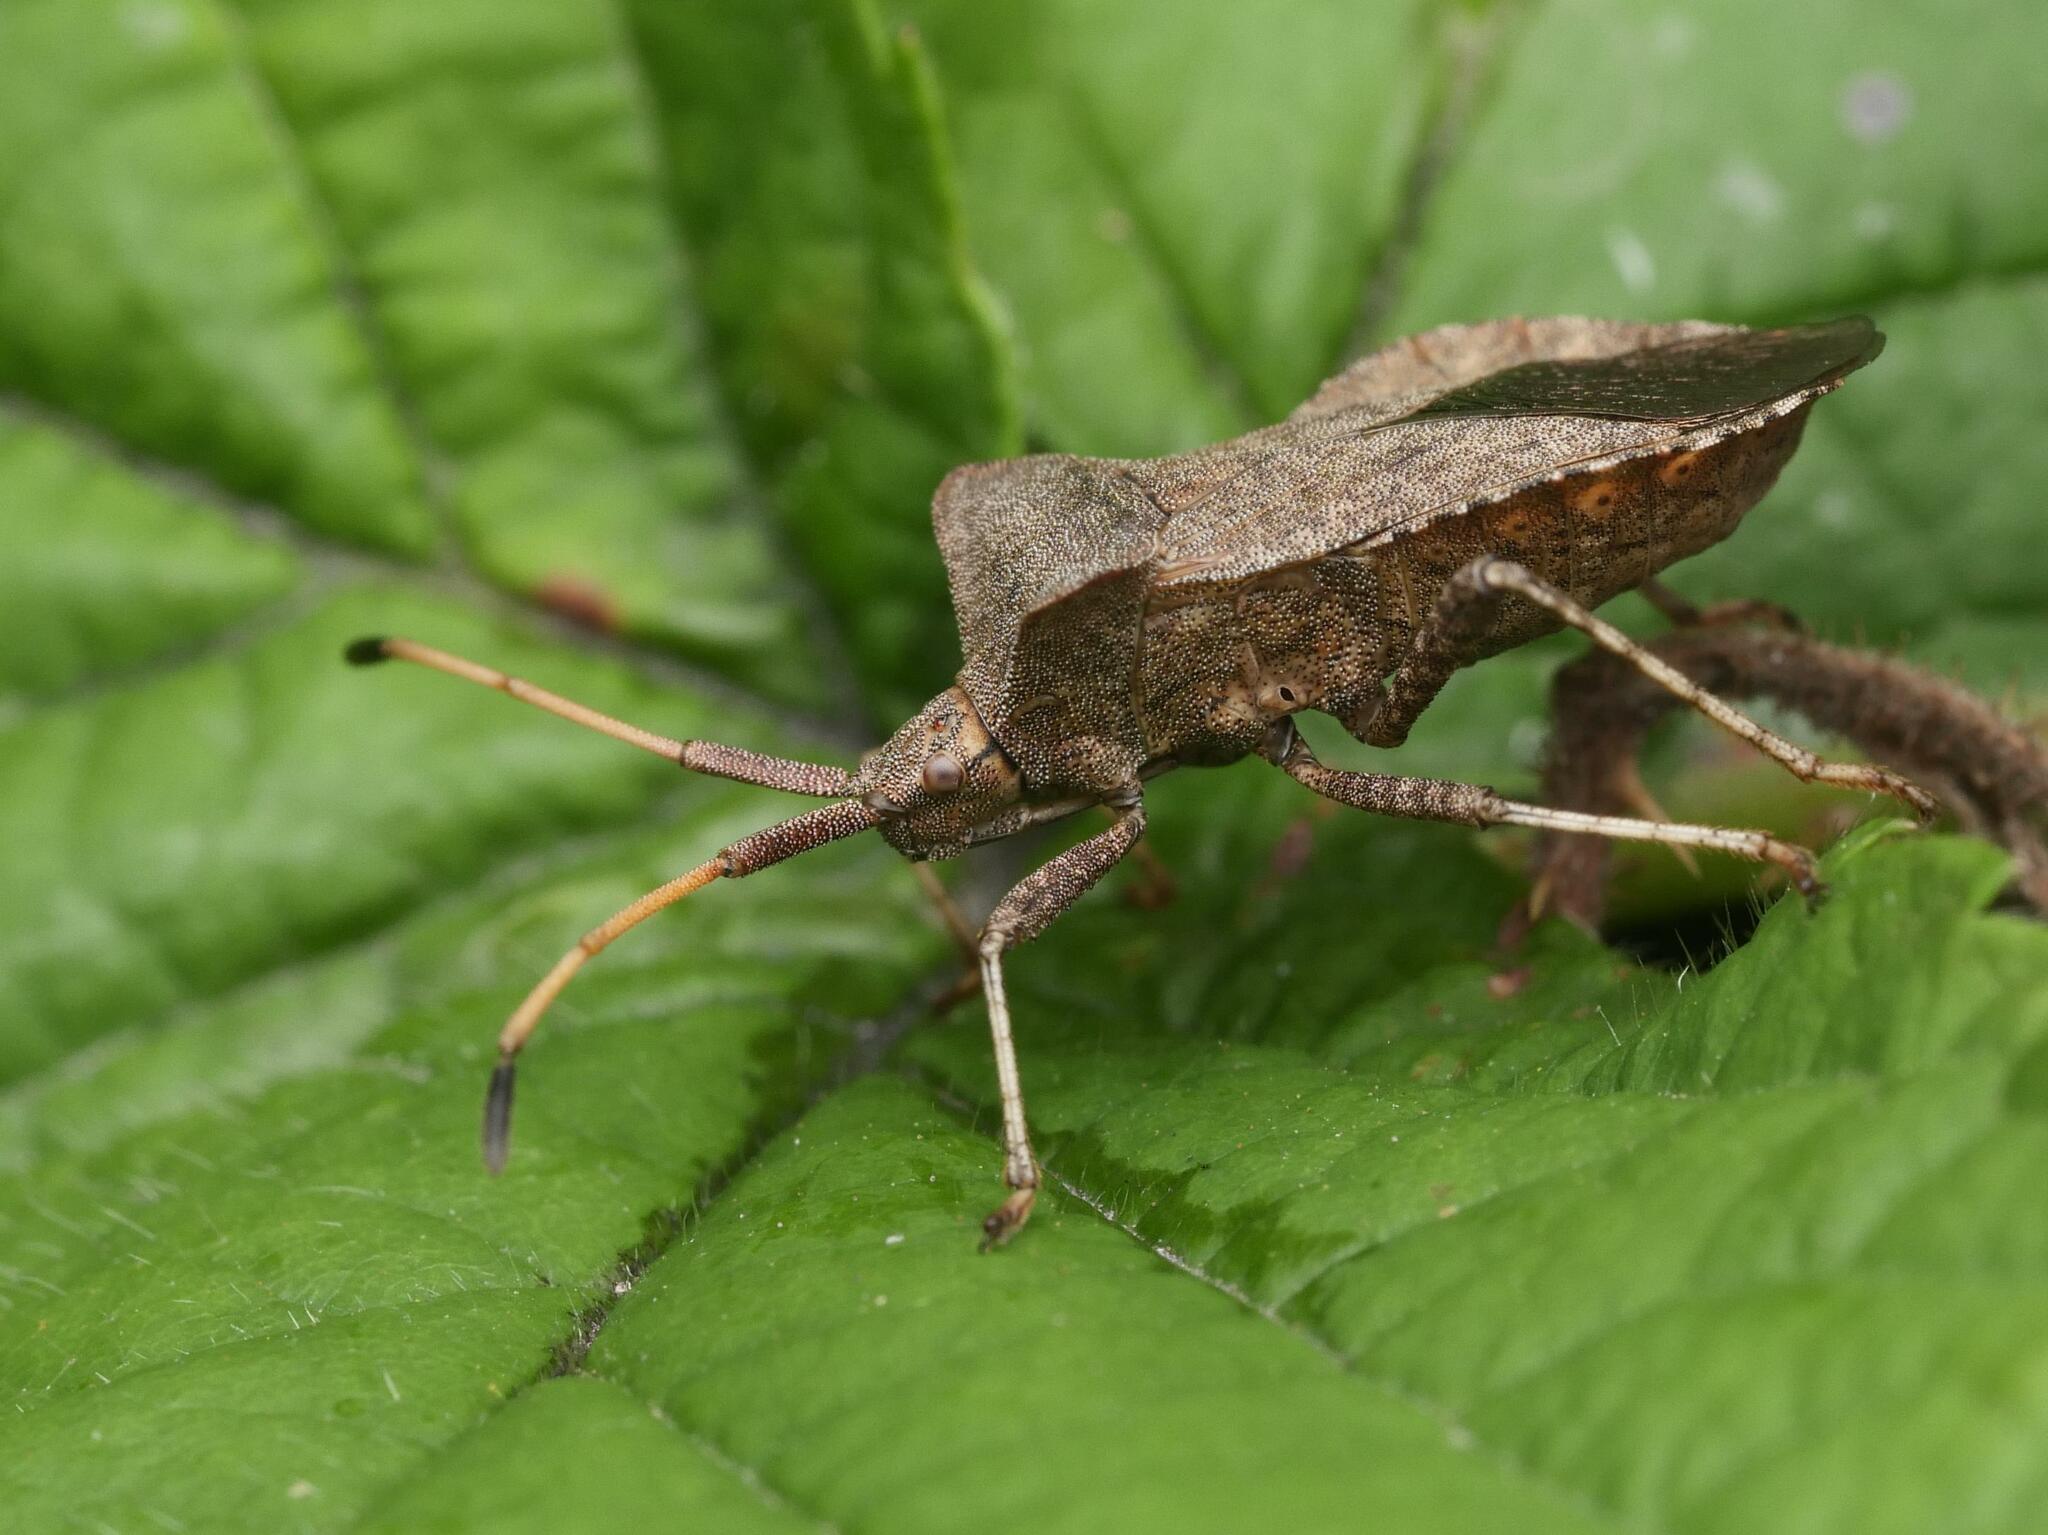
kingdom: Animalia
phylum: Arthropoda
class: Insecta
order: Hemiptera
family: Coreidae
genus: Coreus
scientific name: Coreus marginatus
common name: Dock bug
